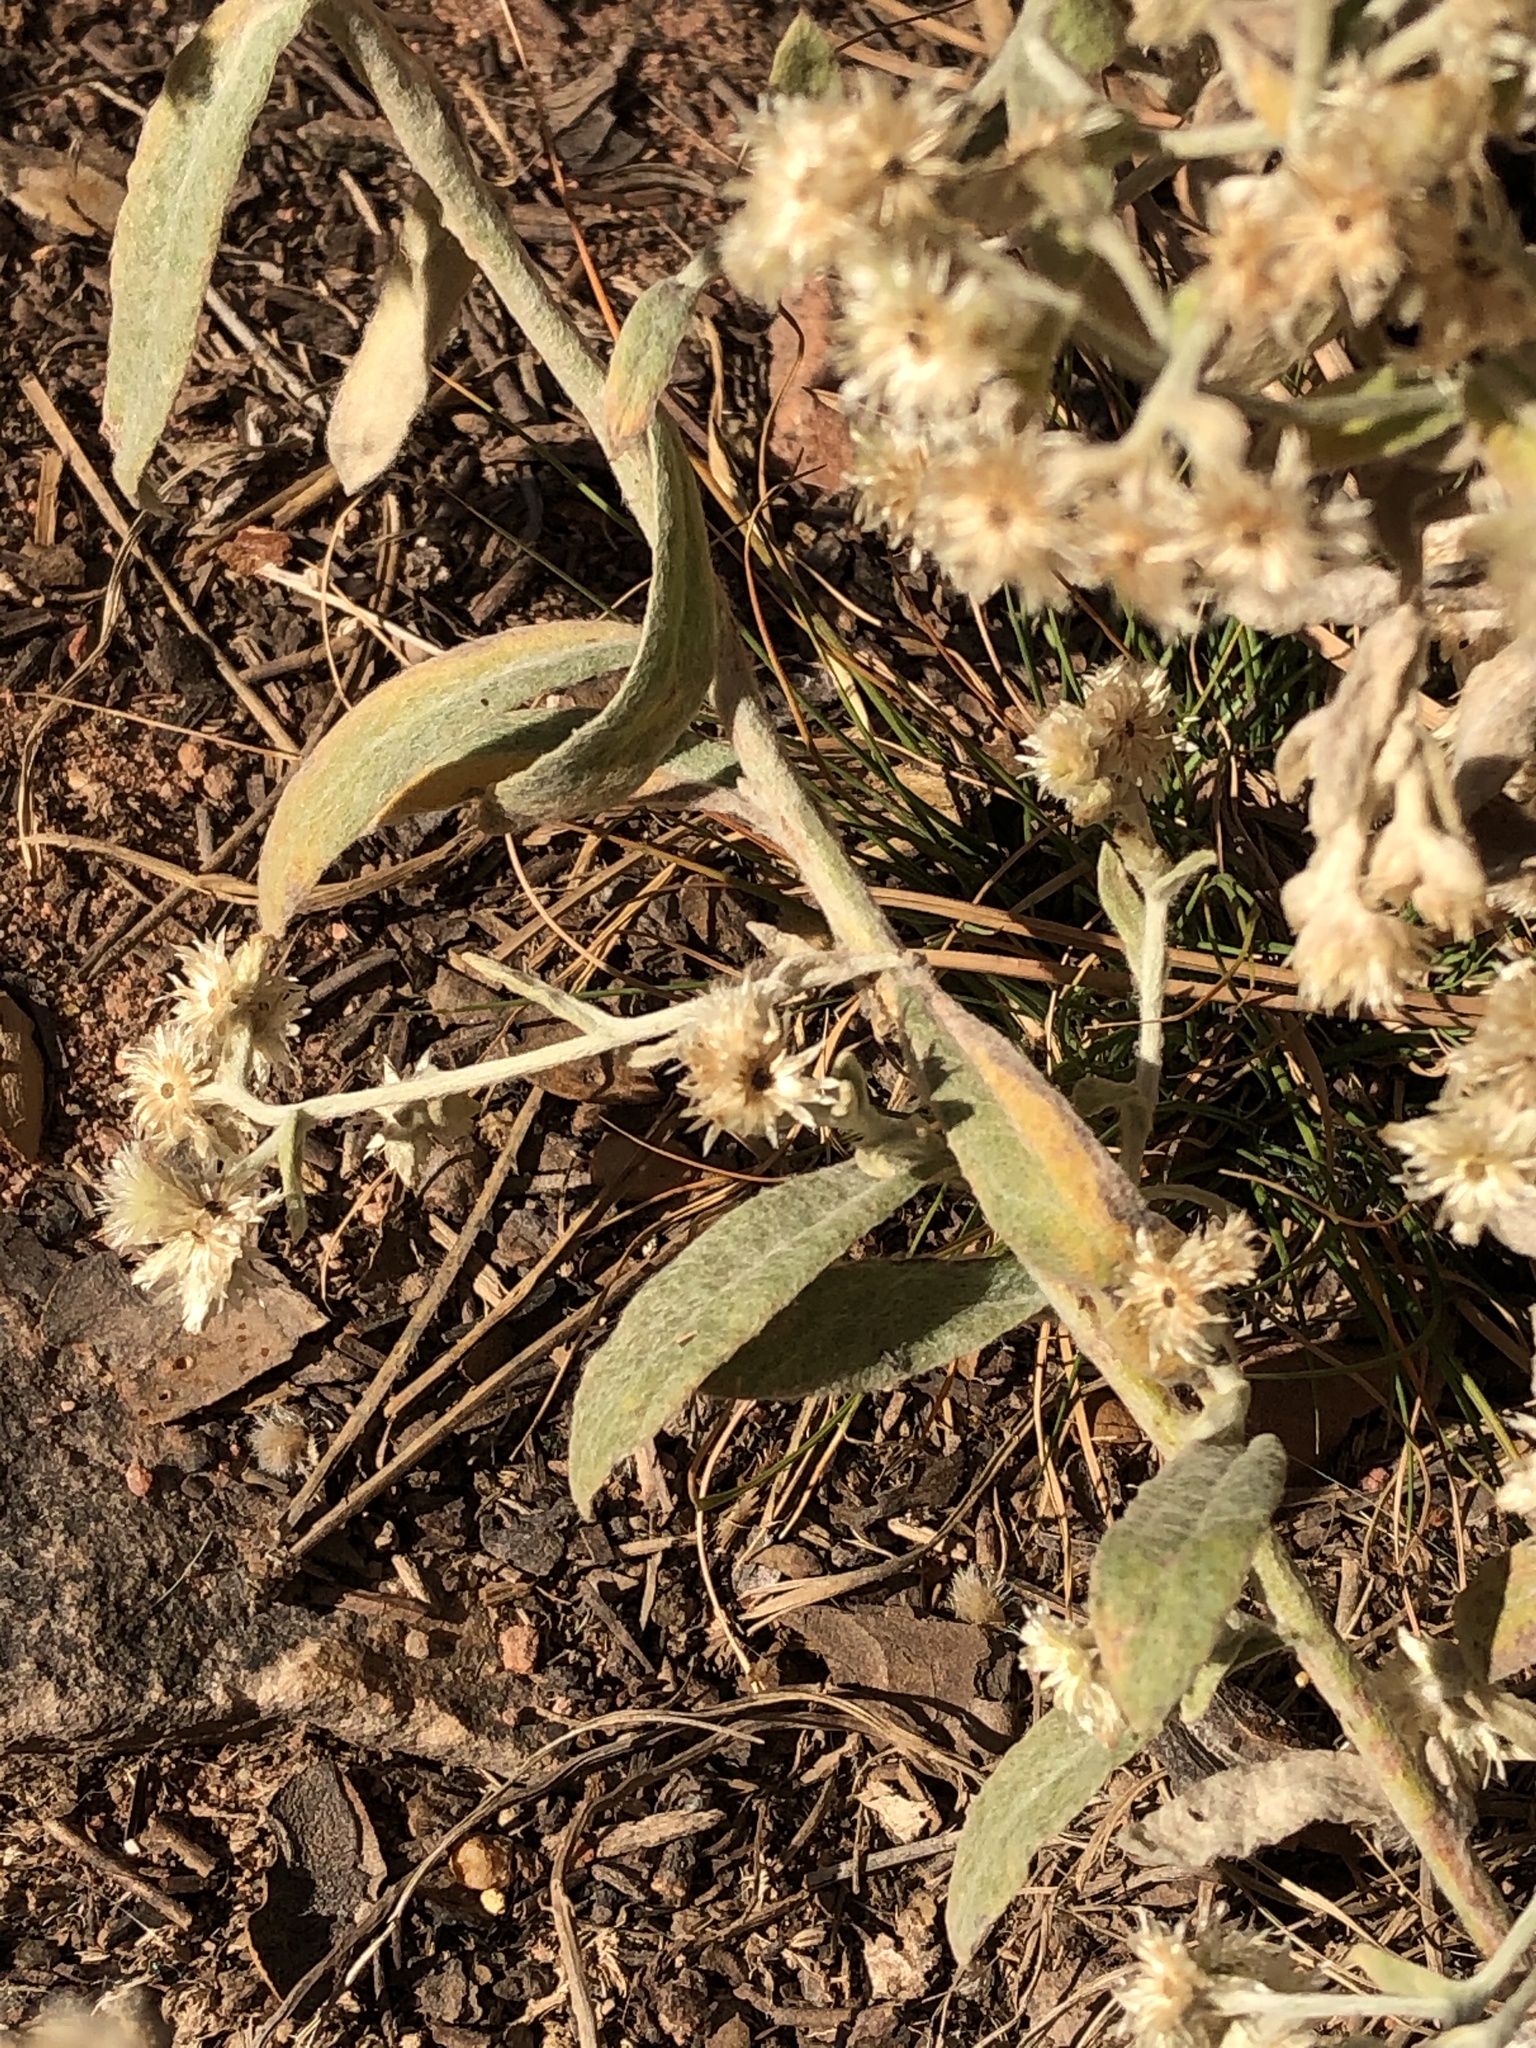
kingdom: Plantae
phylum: Tracheophyta
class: Magnoliopsida
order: Asterales
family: Asteraceae
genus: Pseudognaphalium
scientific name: Pseudognaphalium canescens
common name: Wright's rabbit-tobacco
